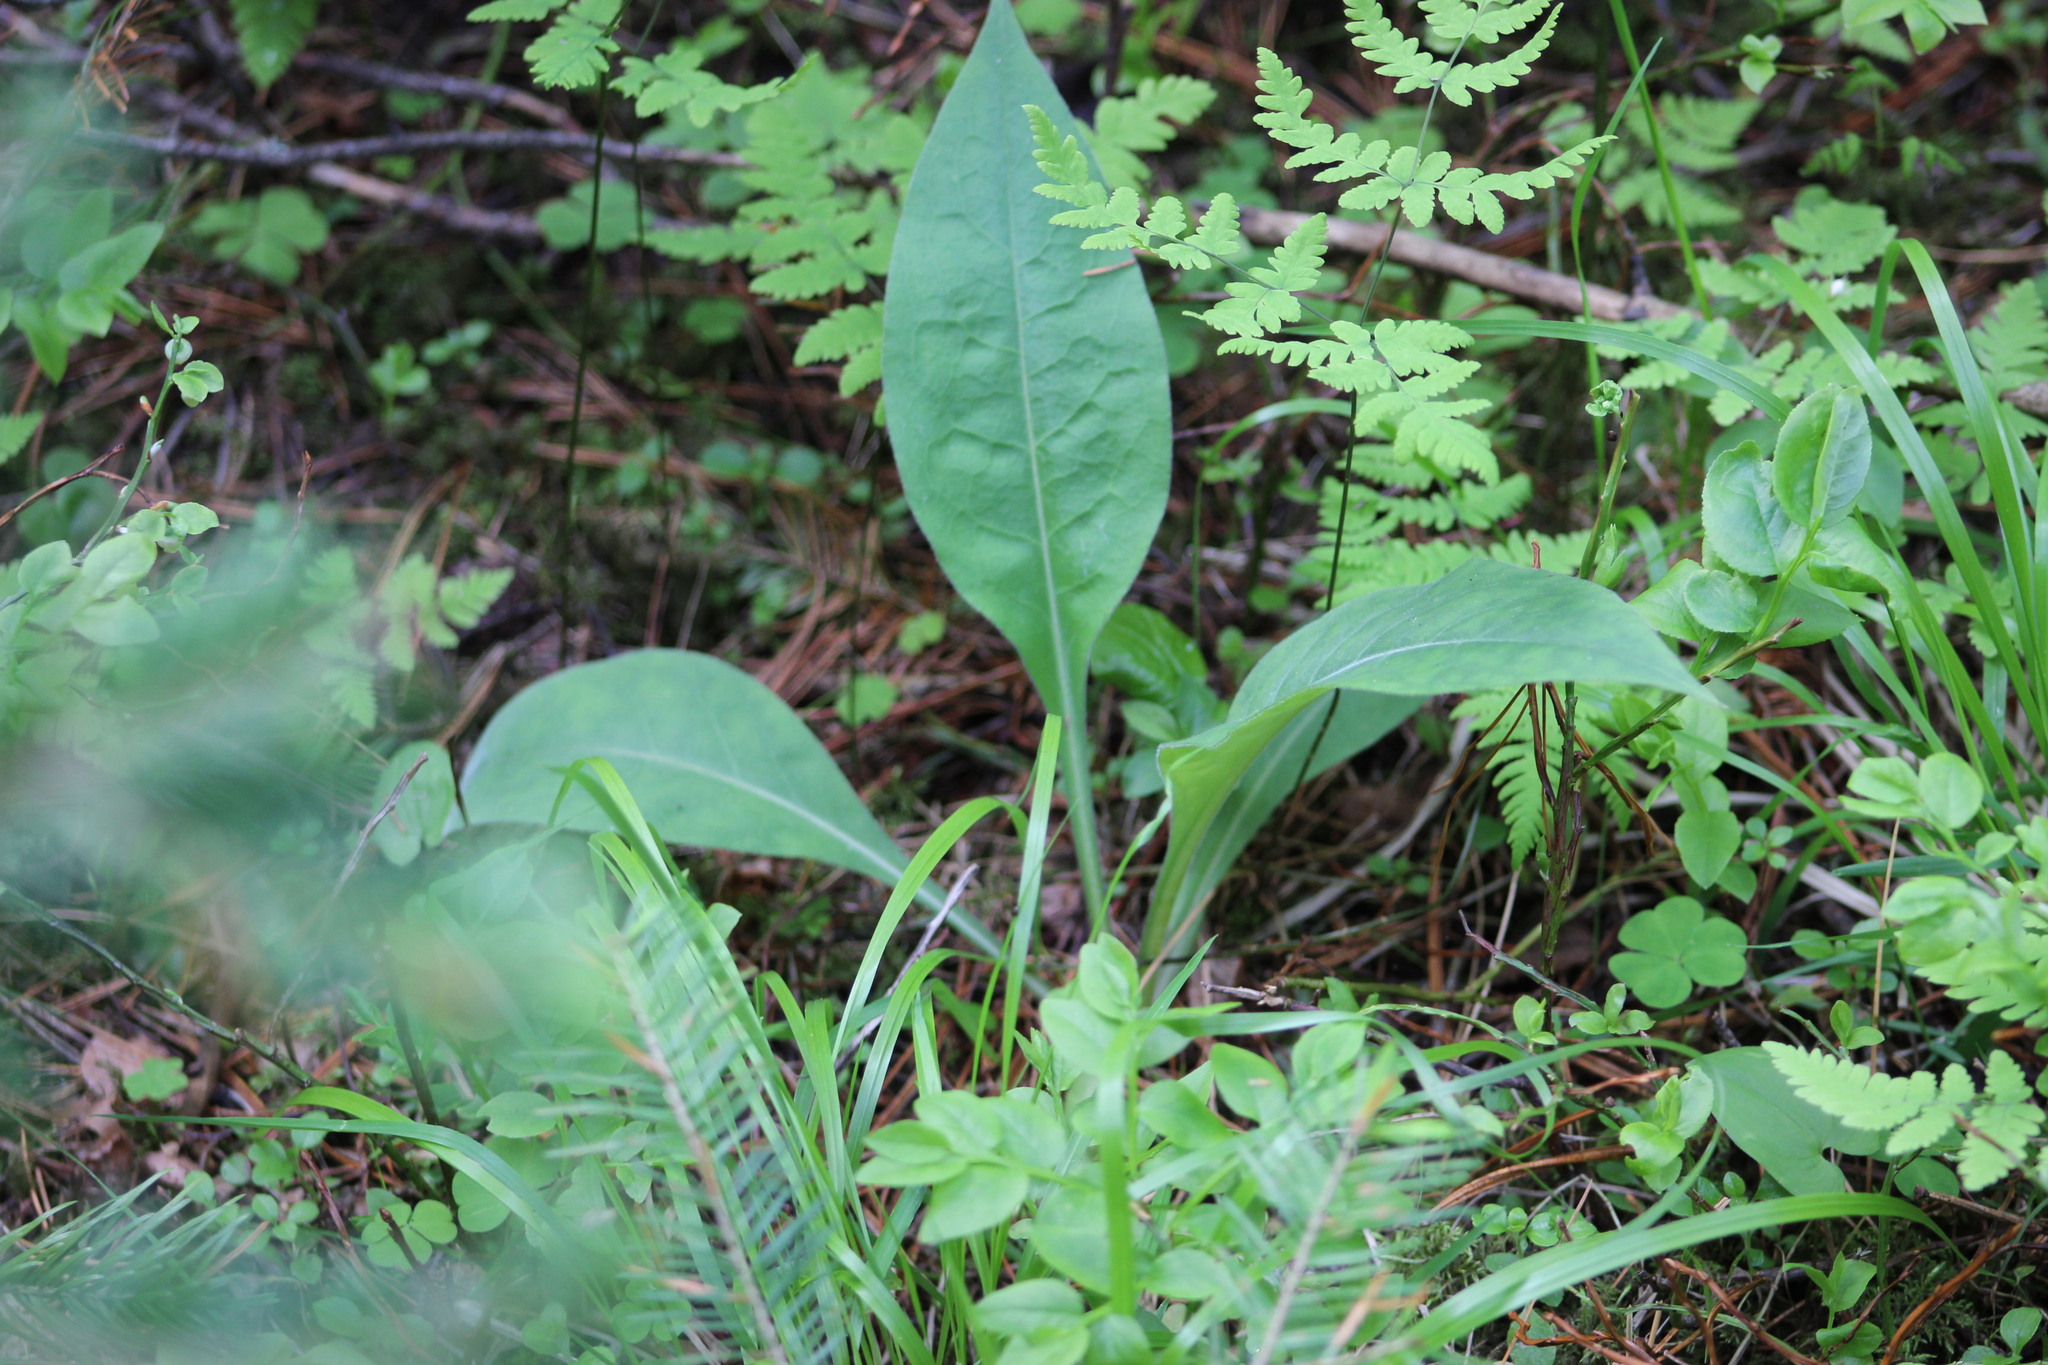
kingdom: Plantae
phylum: Tracheophyta
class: Magnoliopsida
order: Boraginales
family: Boraginaceae
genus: Pulmonaria
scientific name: Pulmonaria mollis
